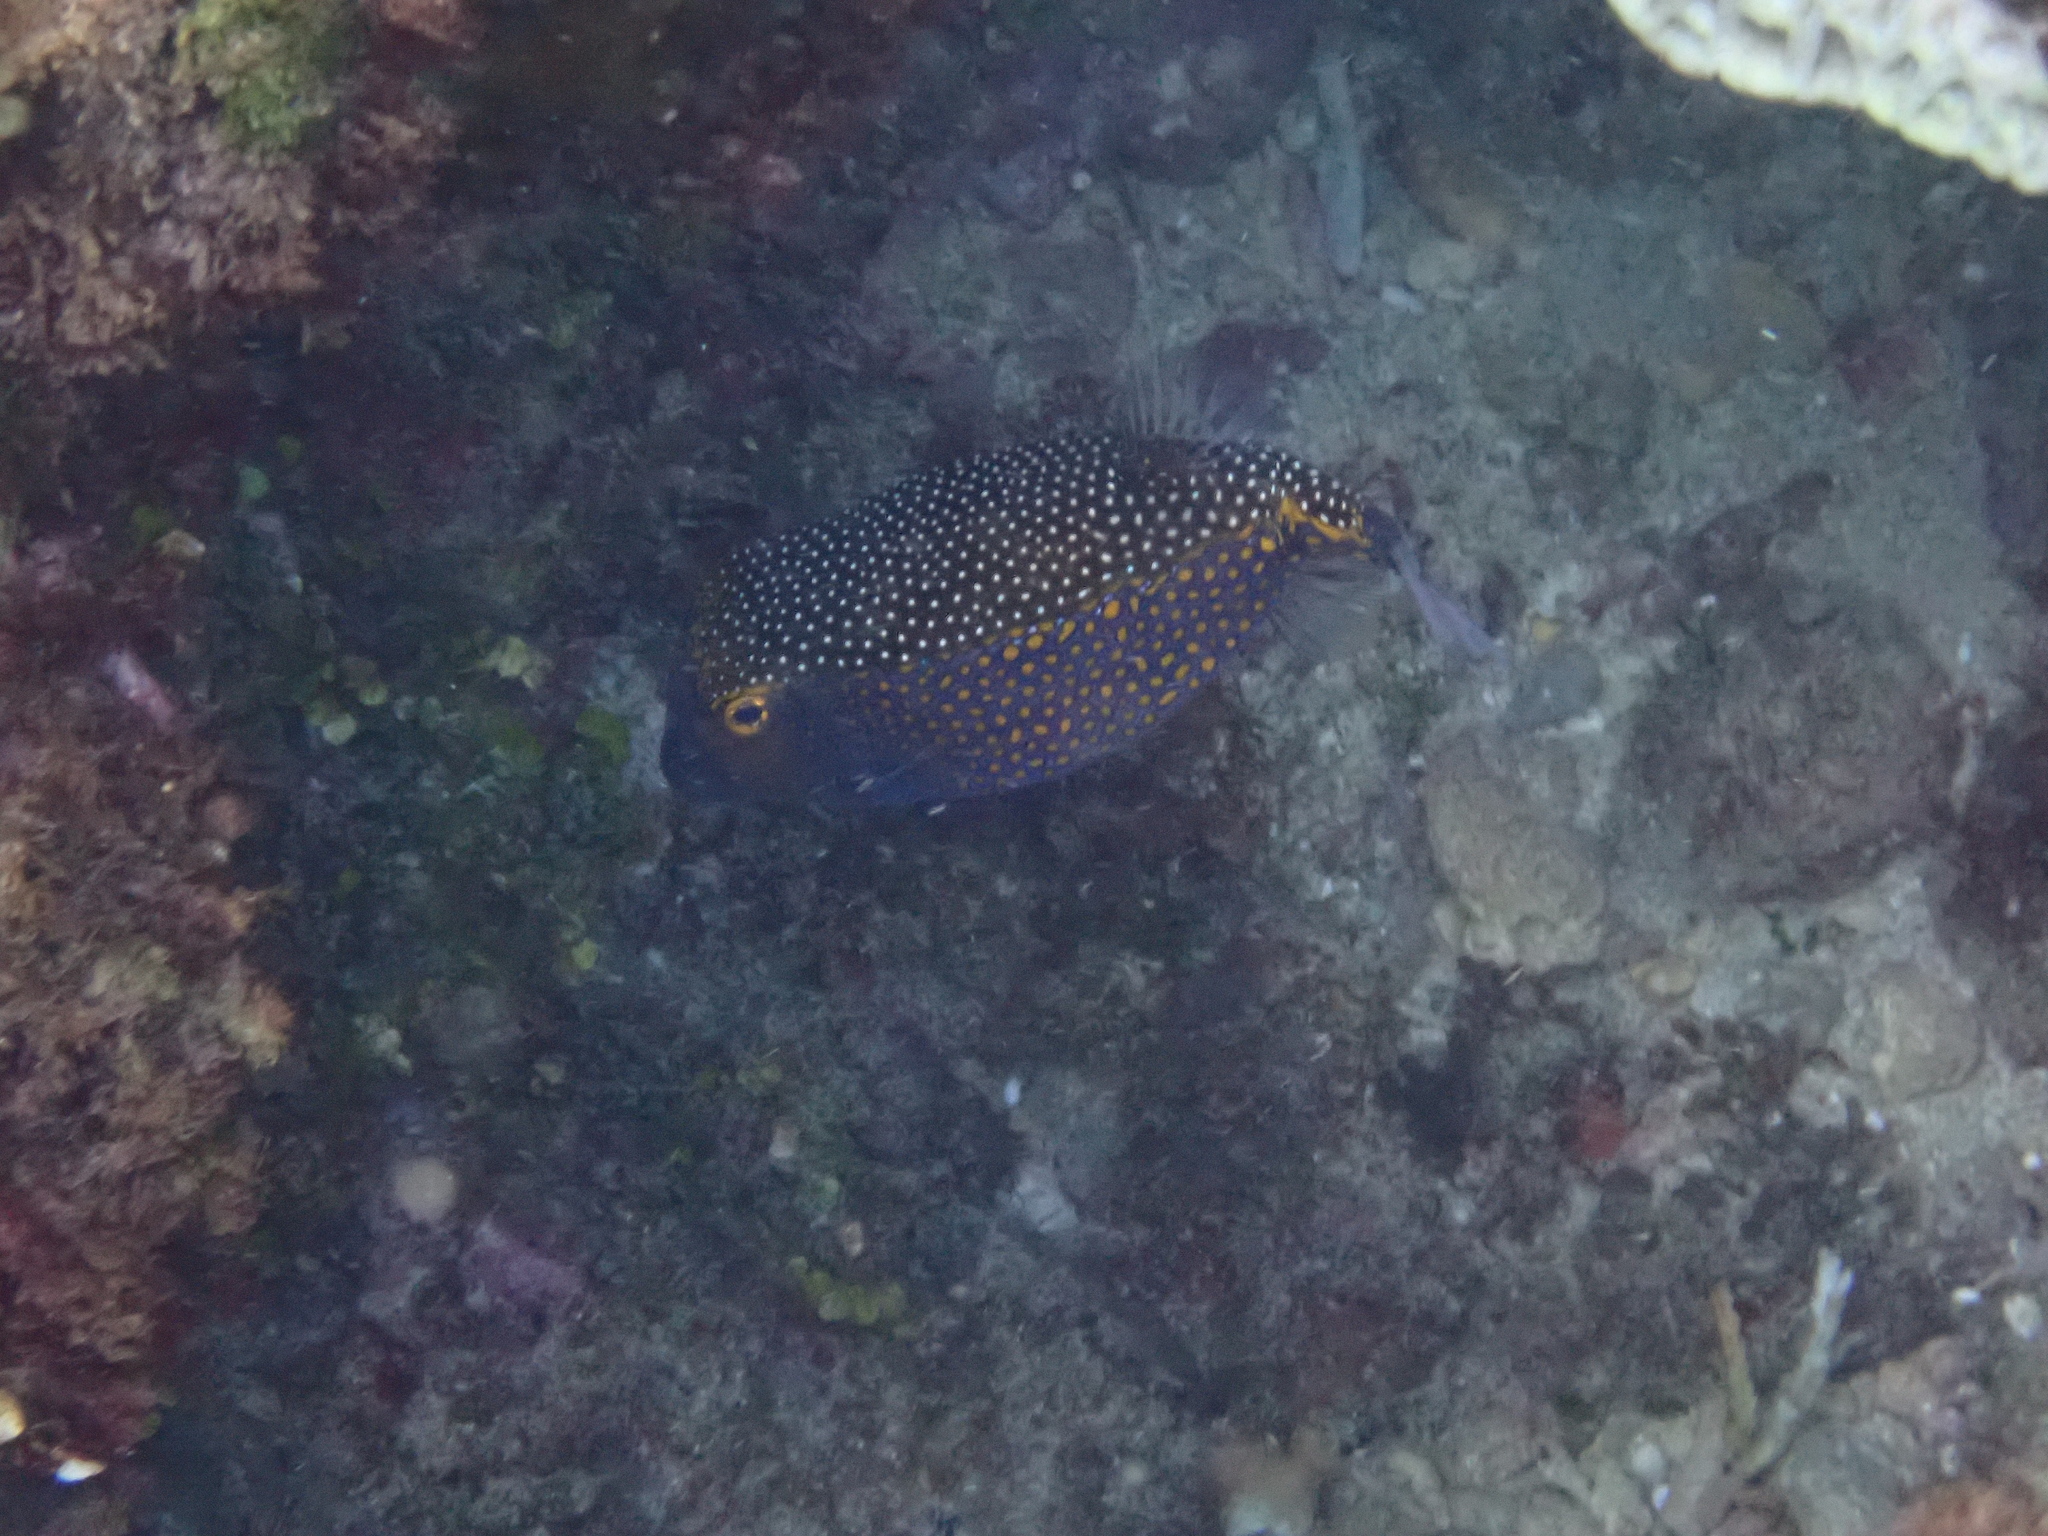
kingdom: Animalia
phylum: Chordata
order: Tetraodontiformes
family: Ostraciidae
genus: Ostracion
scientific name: Ostracion meleagris
